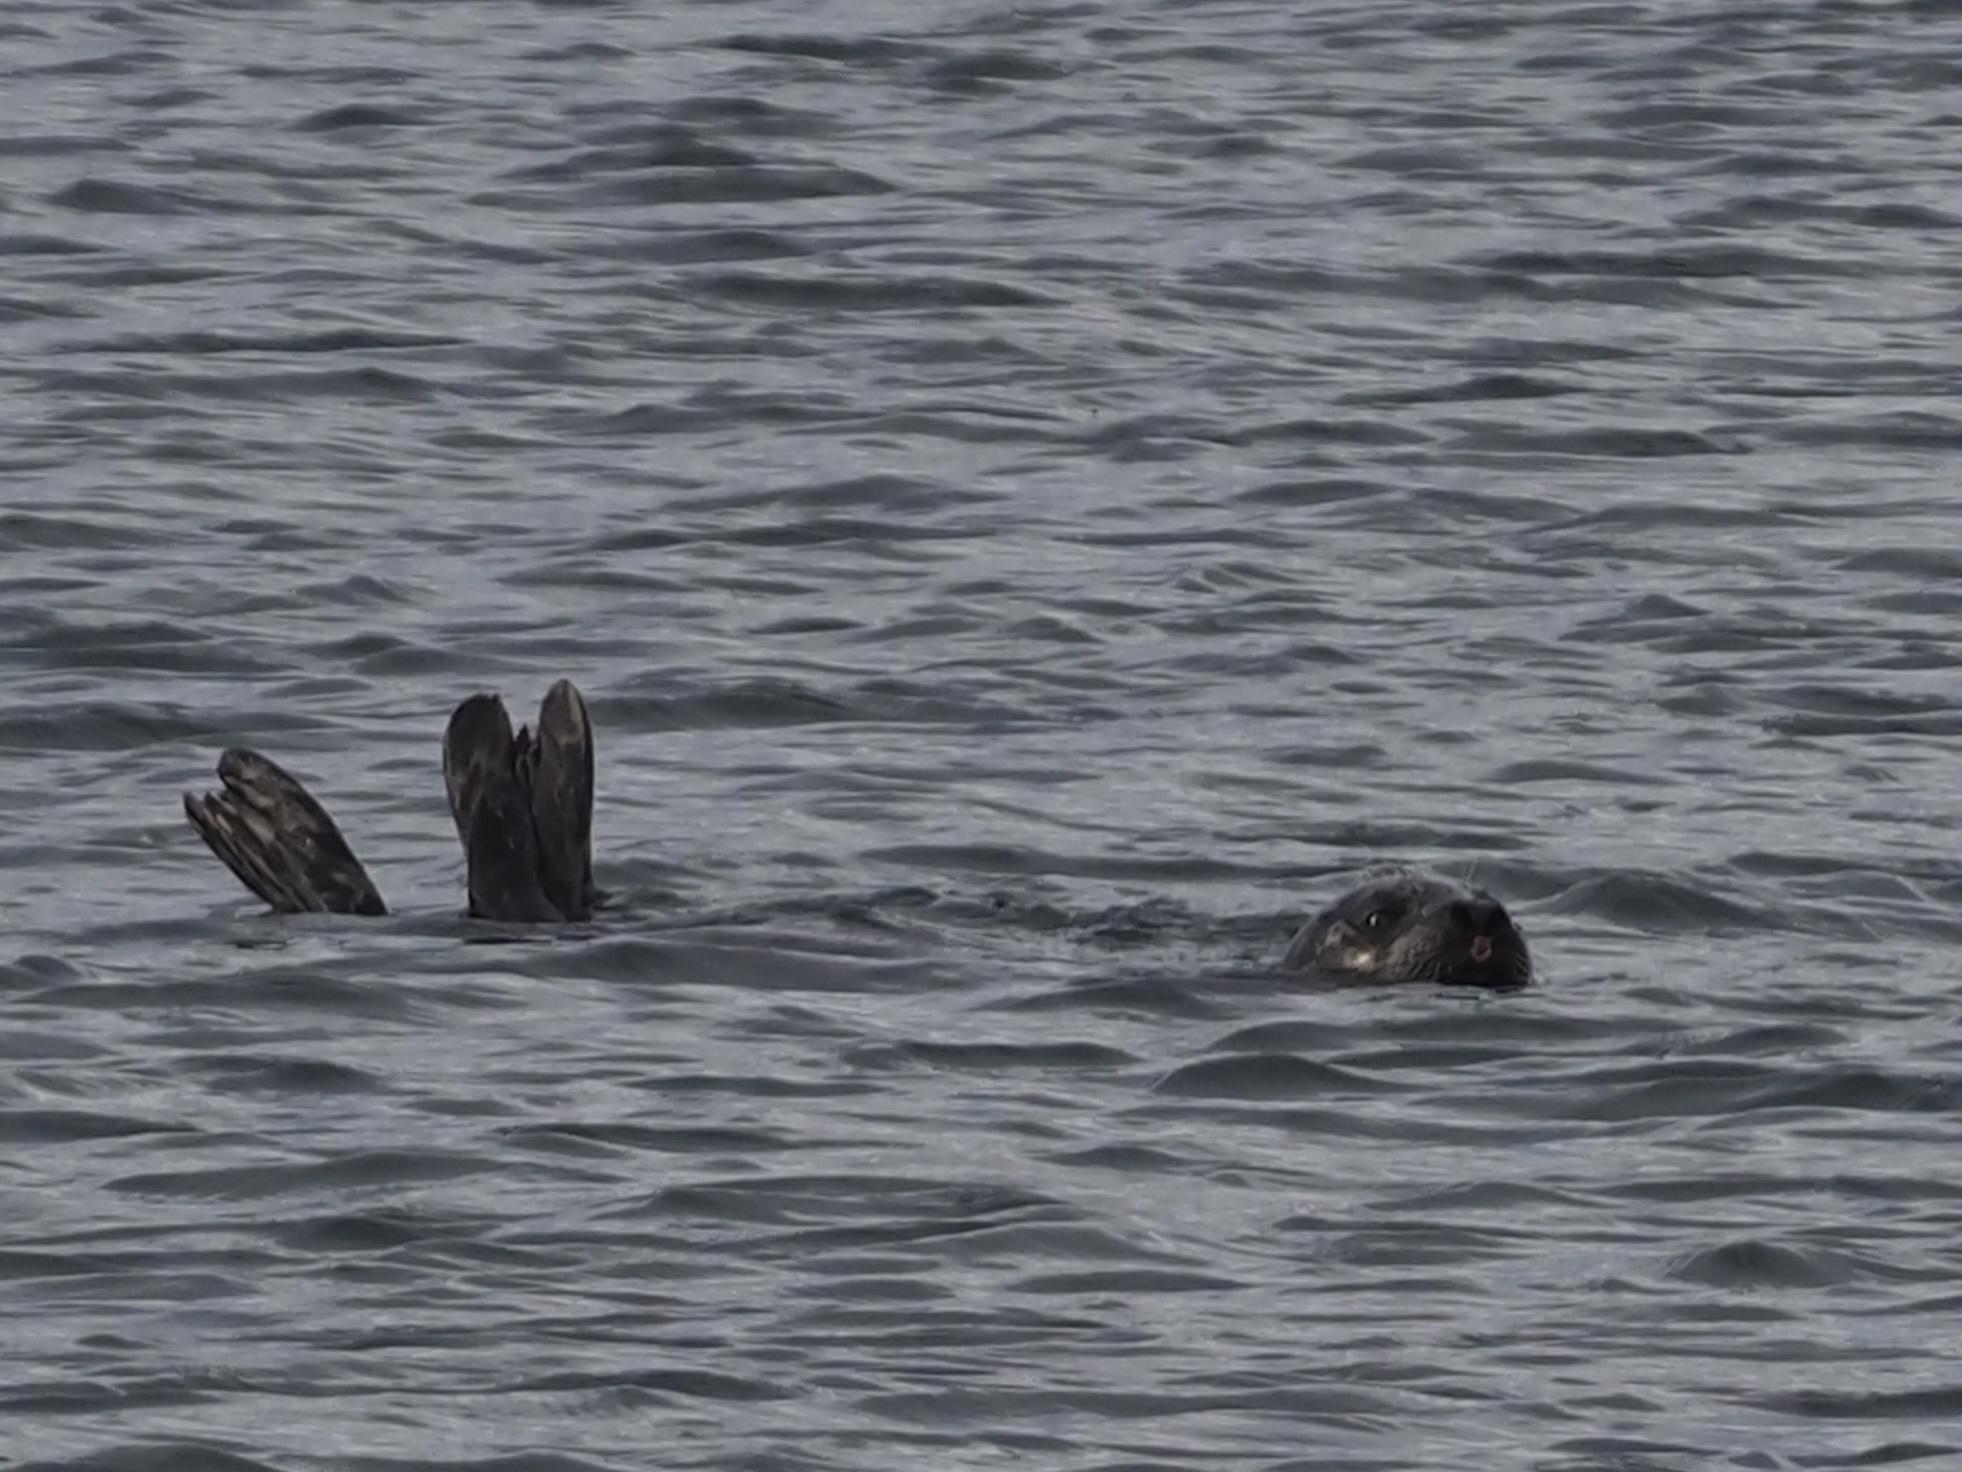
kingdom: Animalia
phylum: Chordata
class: Mammalia
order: Carnivora
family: Phocidae
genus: Phoca
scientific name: Phoca vitulina
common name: Harbor seal
